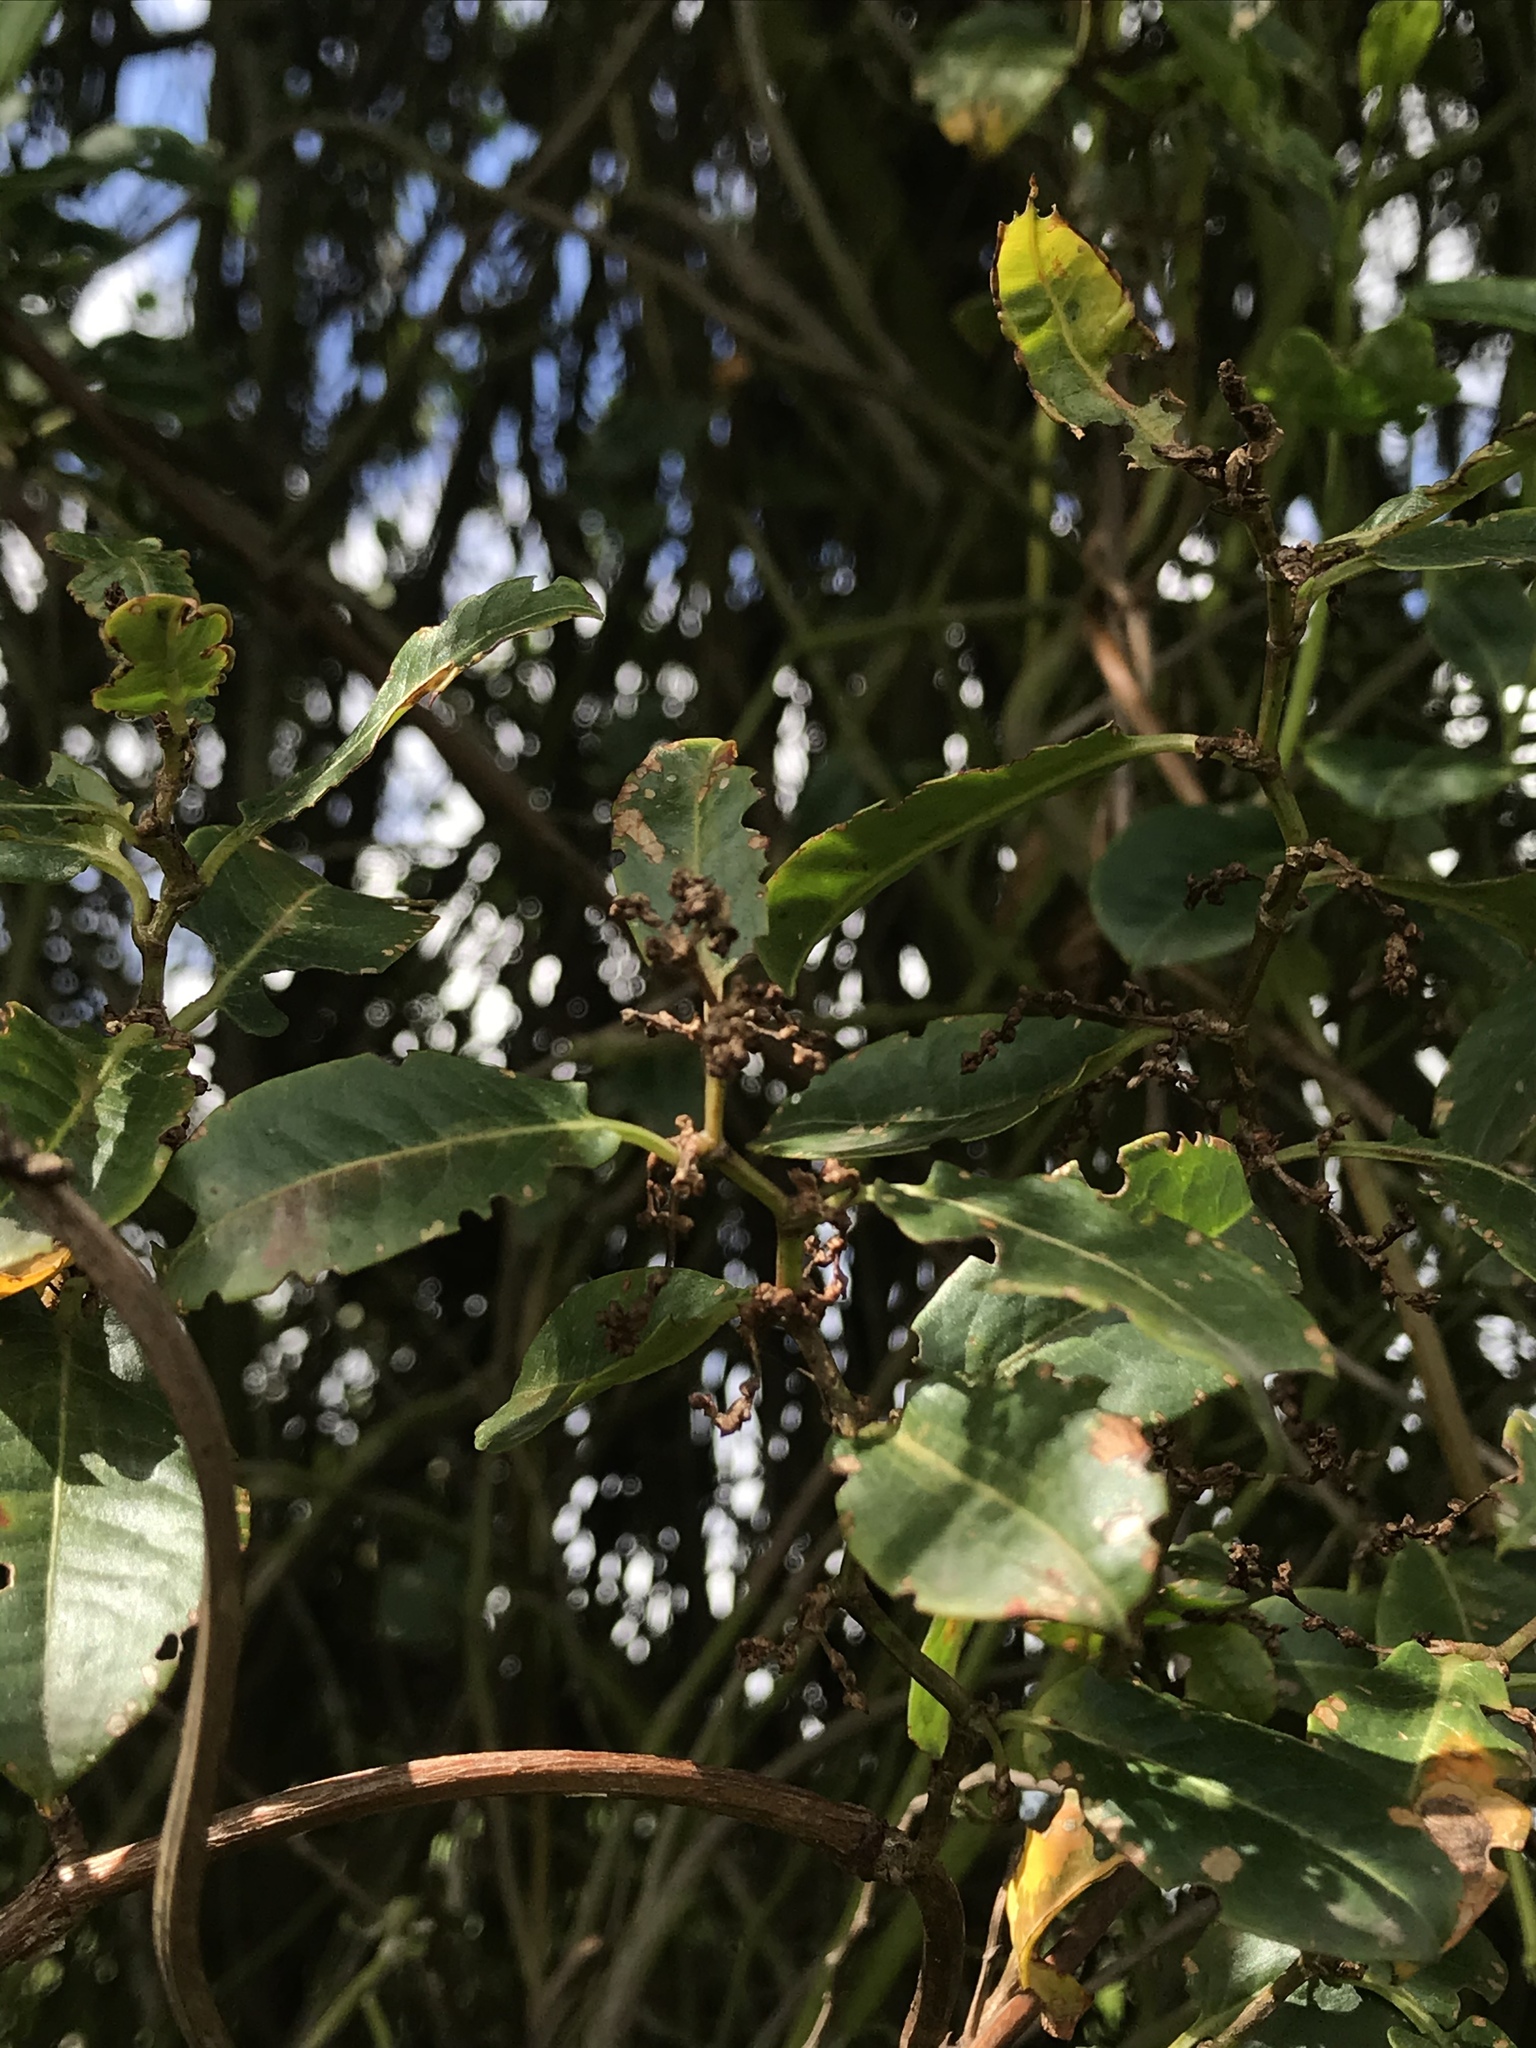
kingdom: Plantae
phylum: Tracheophyta
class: Magnoliopsida
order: Caryophyllales
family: Polygonaceae
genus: Muehlenbeckia
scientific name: Muehlenbeckia tamnifolia
